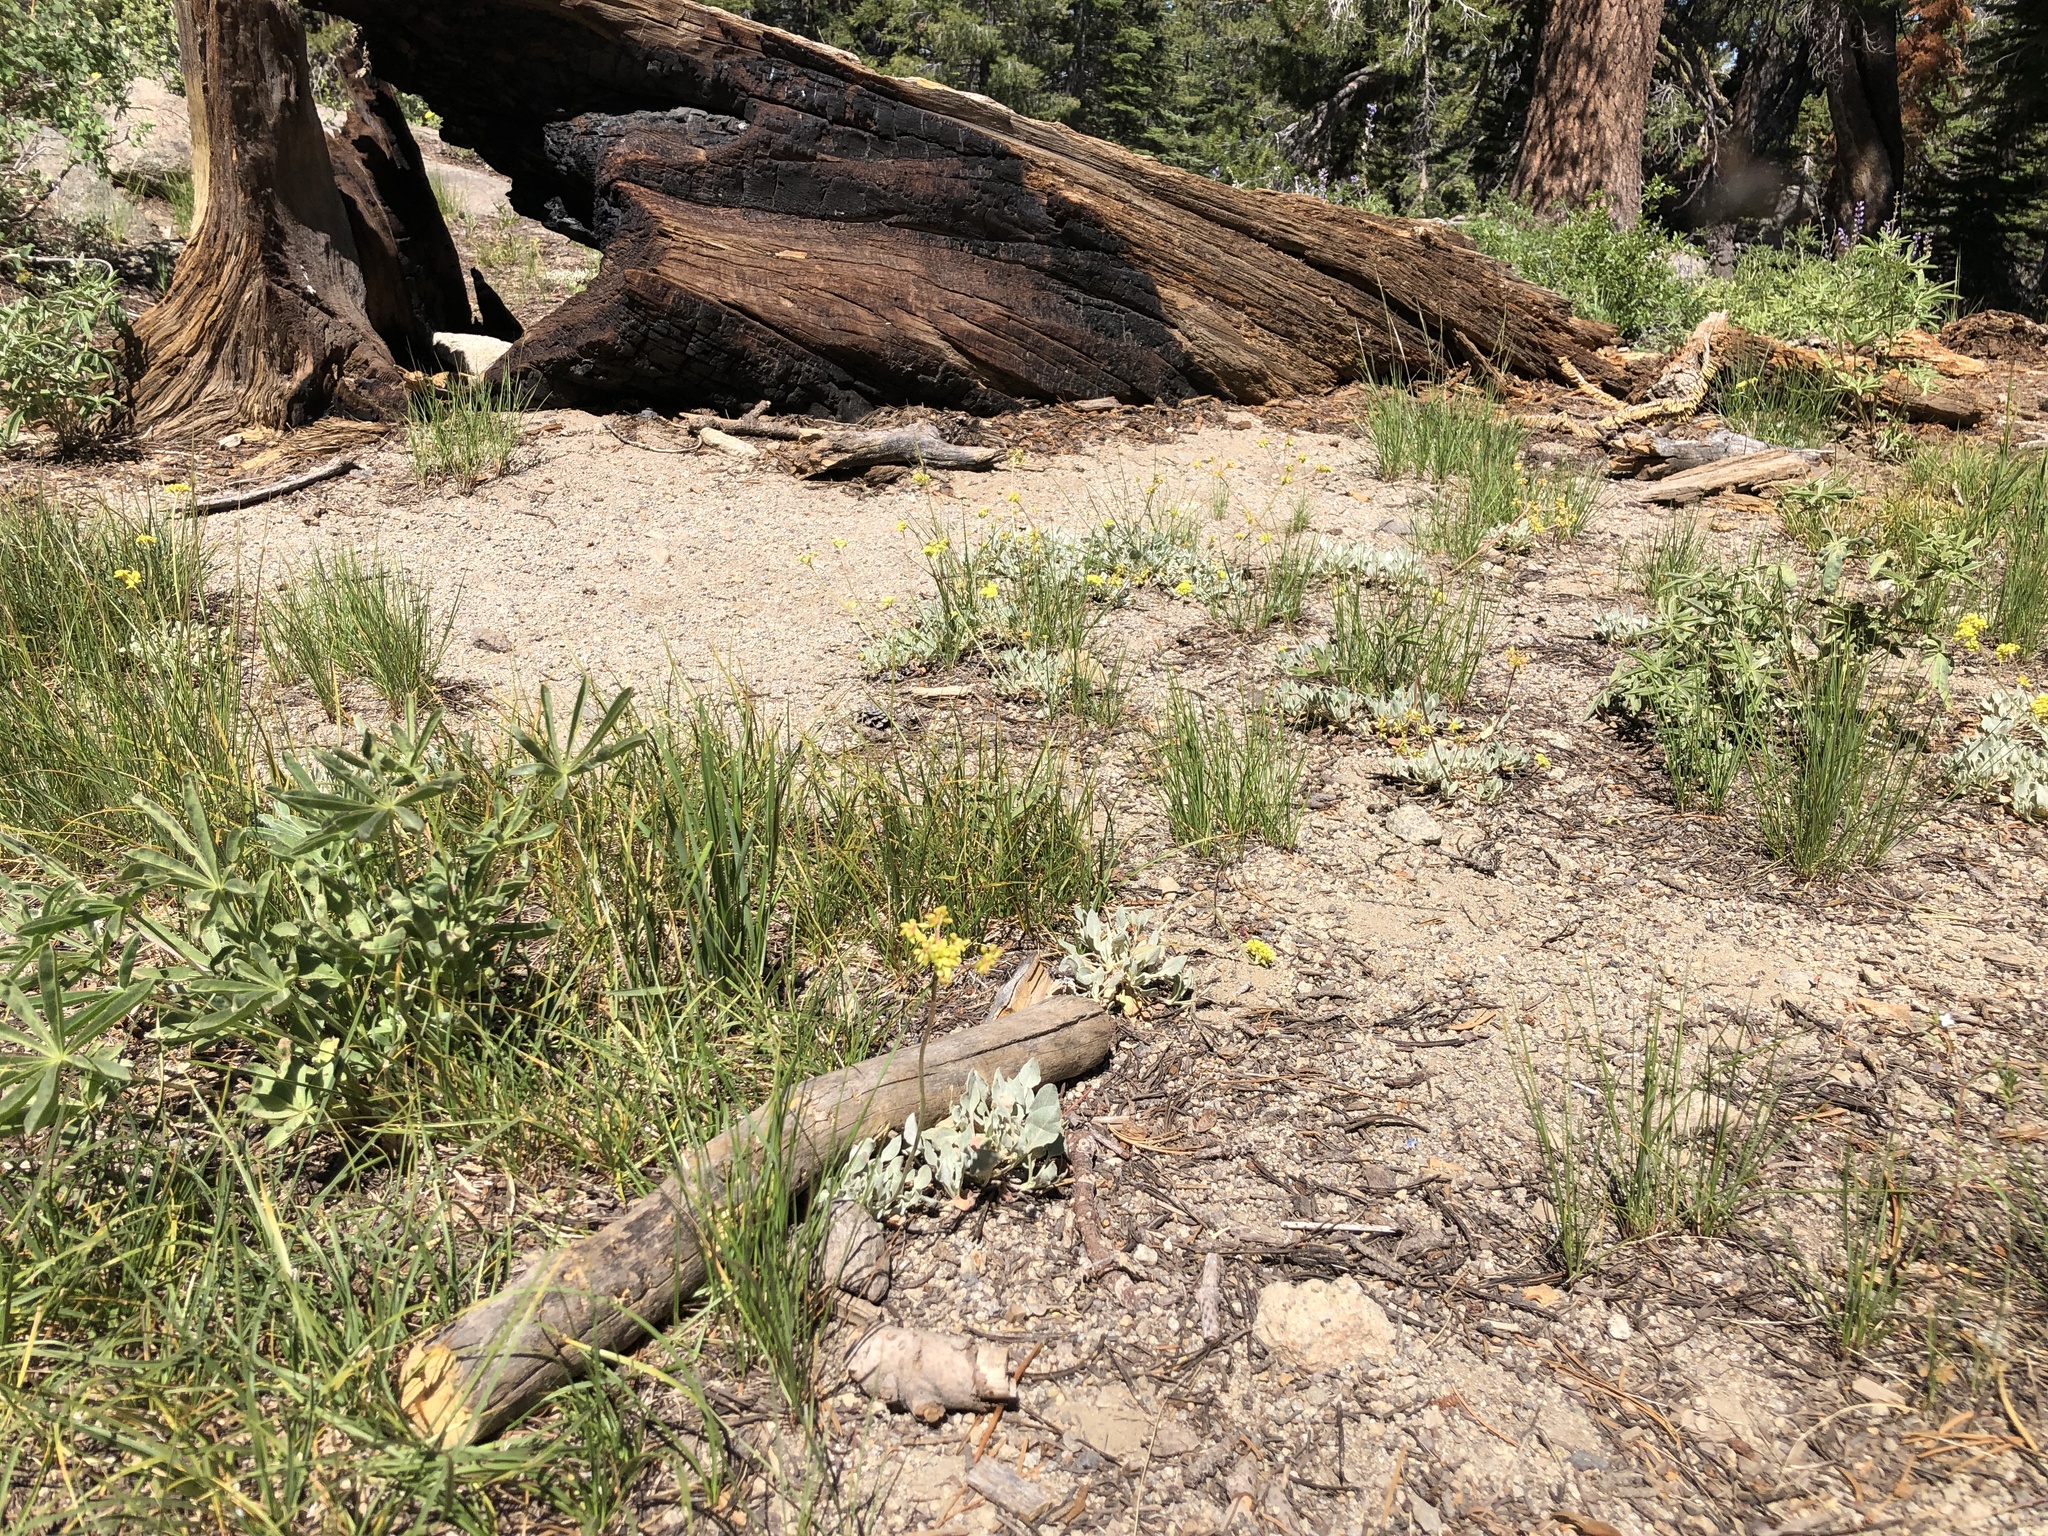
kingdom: Plantae
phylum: Tracheophyta
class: Magnoliopsida
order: Caryophyllales
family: Polygonaceae
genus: Eriogonum
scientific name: Eriogonum incanum
